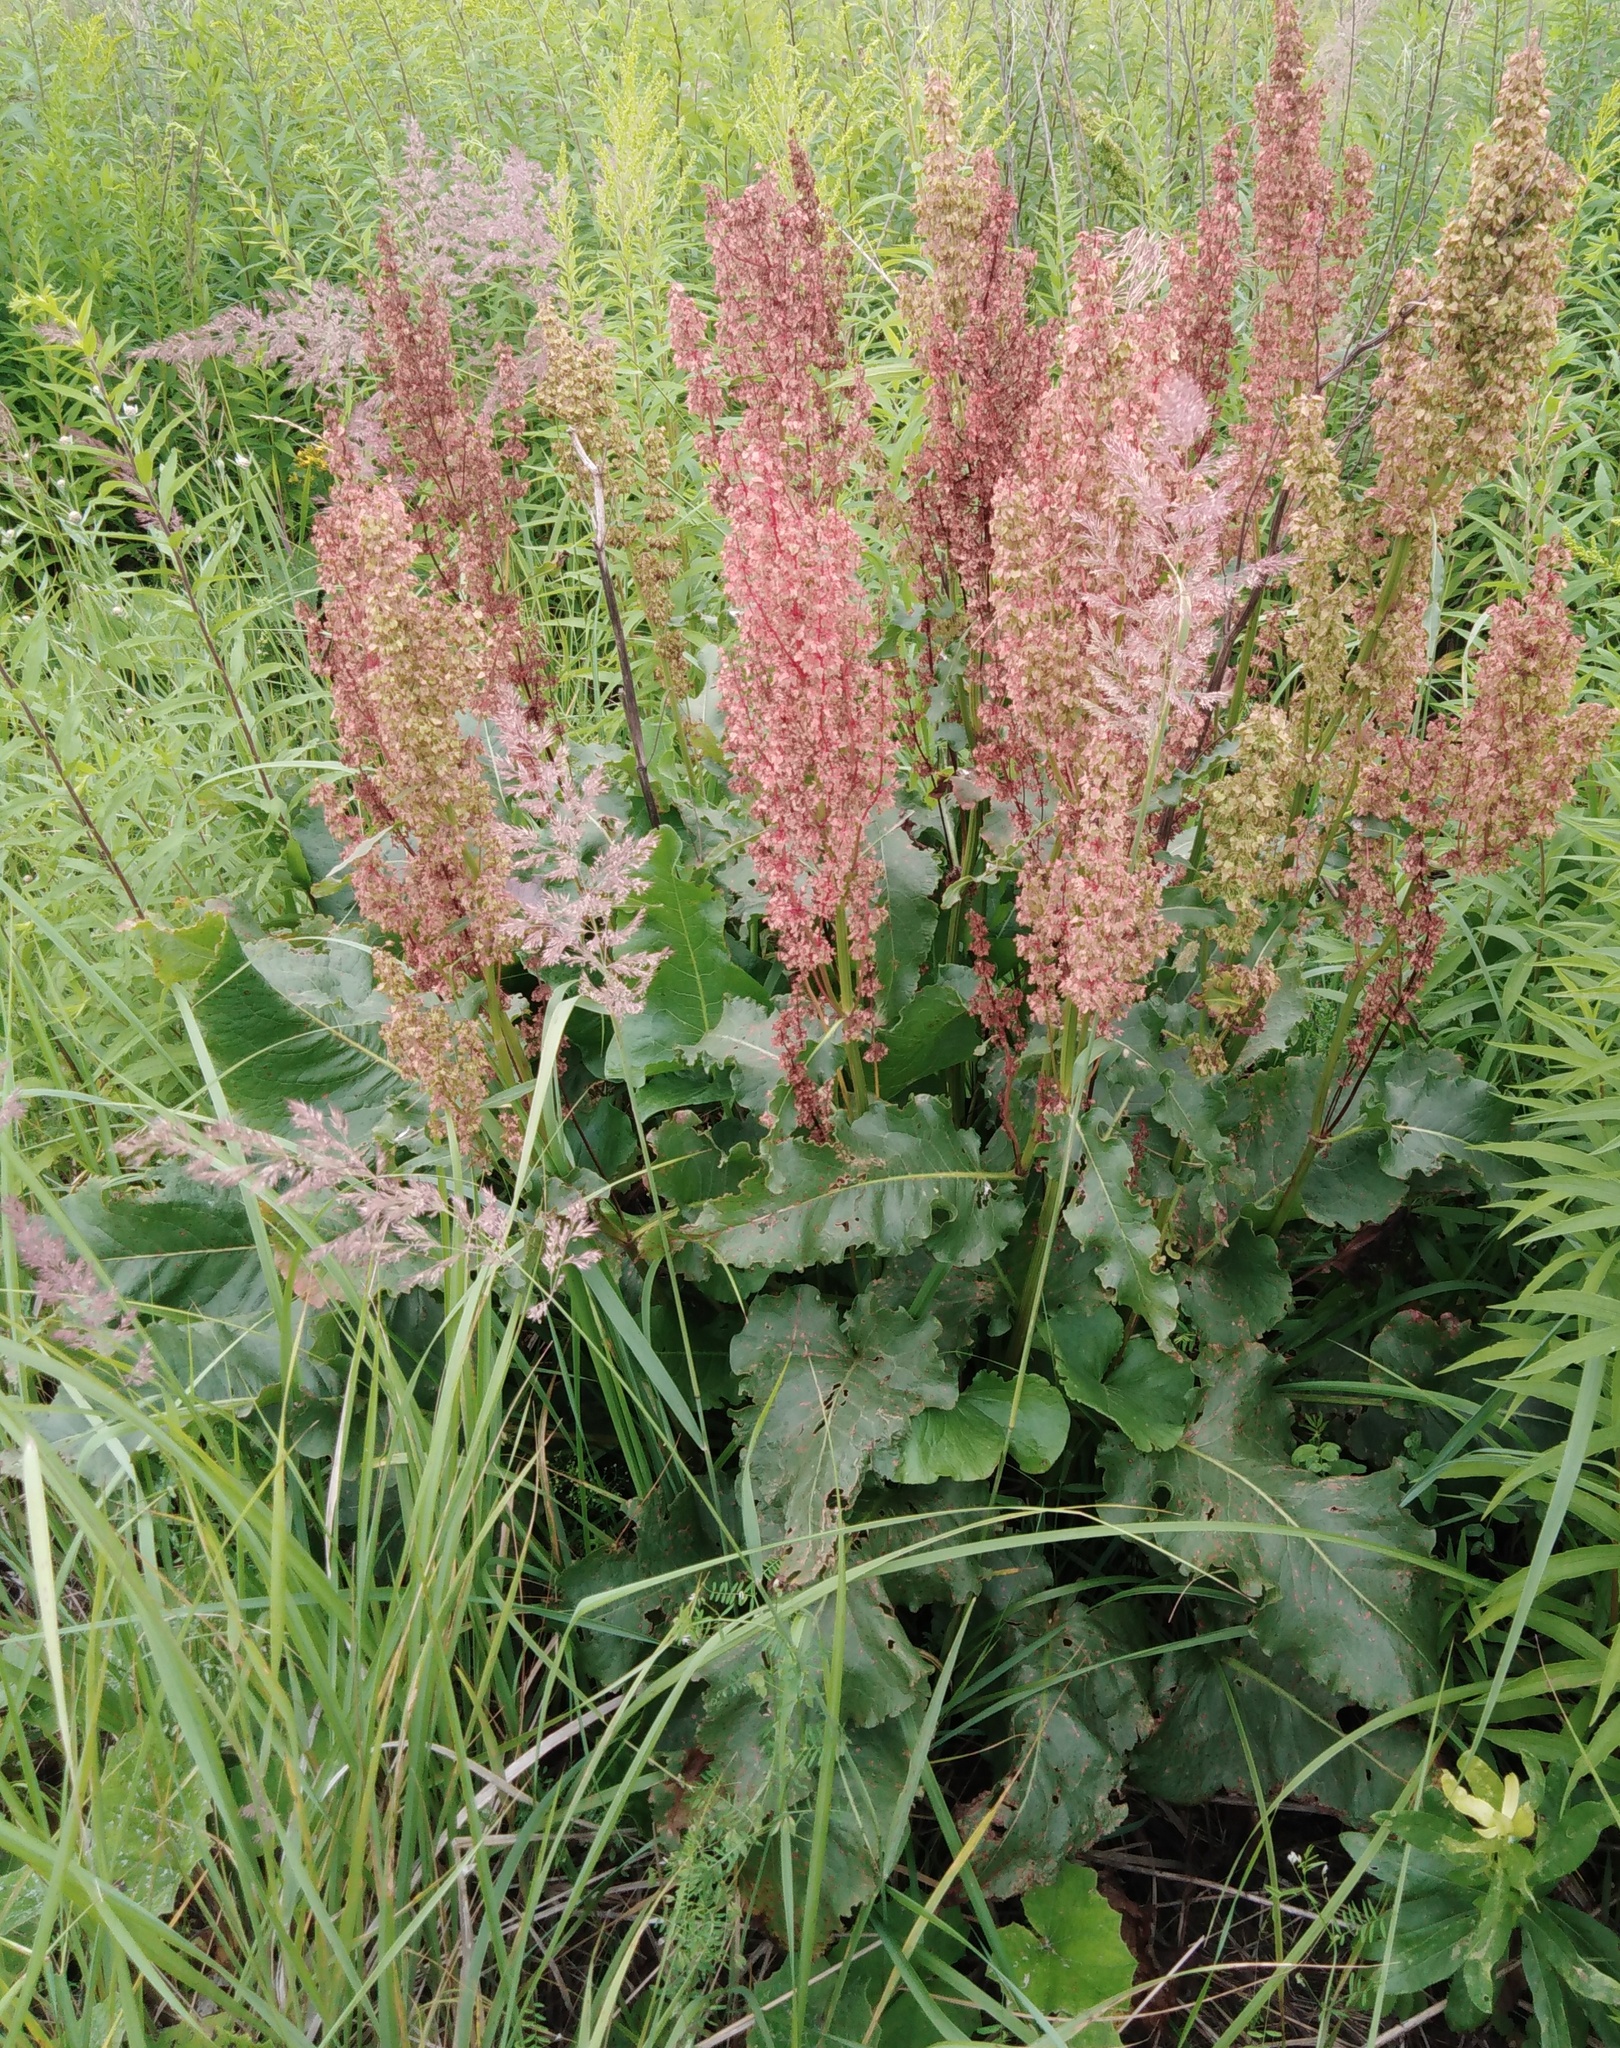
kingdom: Plantae
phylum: Tracheophyta
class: Magnoliopsida
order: Caryophyllales
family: Polygonaceae
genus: Rumex
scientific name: Rumex confertus
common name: Russian dock
